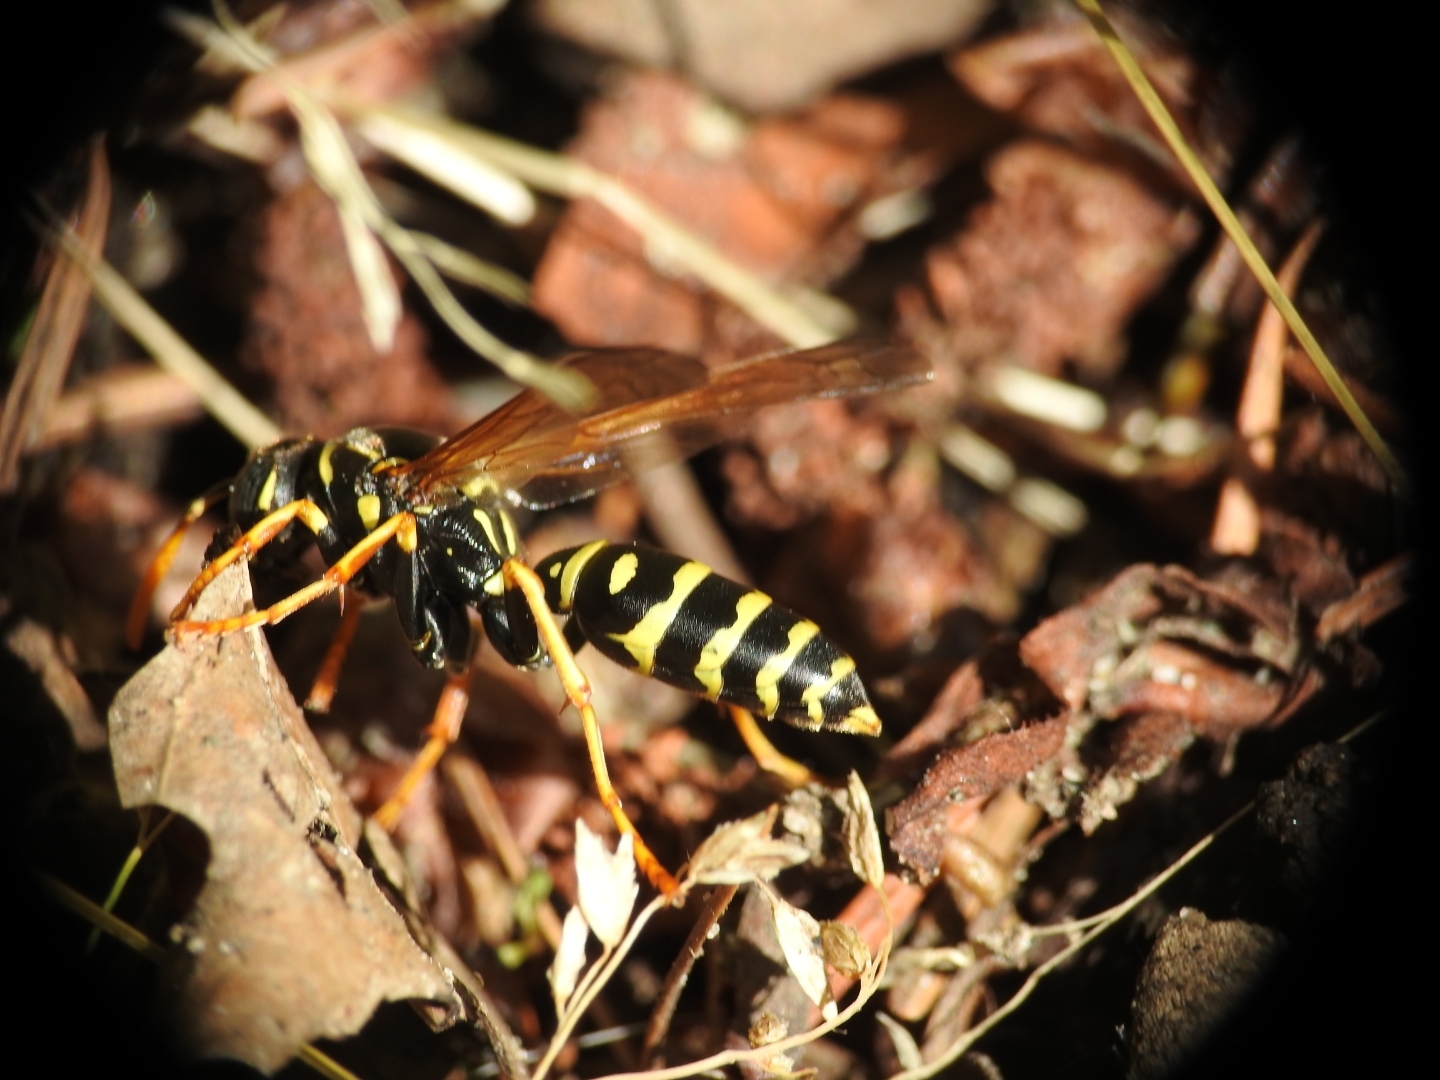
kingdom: Animalia
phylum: Arthropoda
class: Insecta
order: Hymenoptera
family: Eumenidae
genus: Polistes
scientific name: Polistes dominula
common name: Paper wasp
